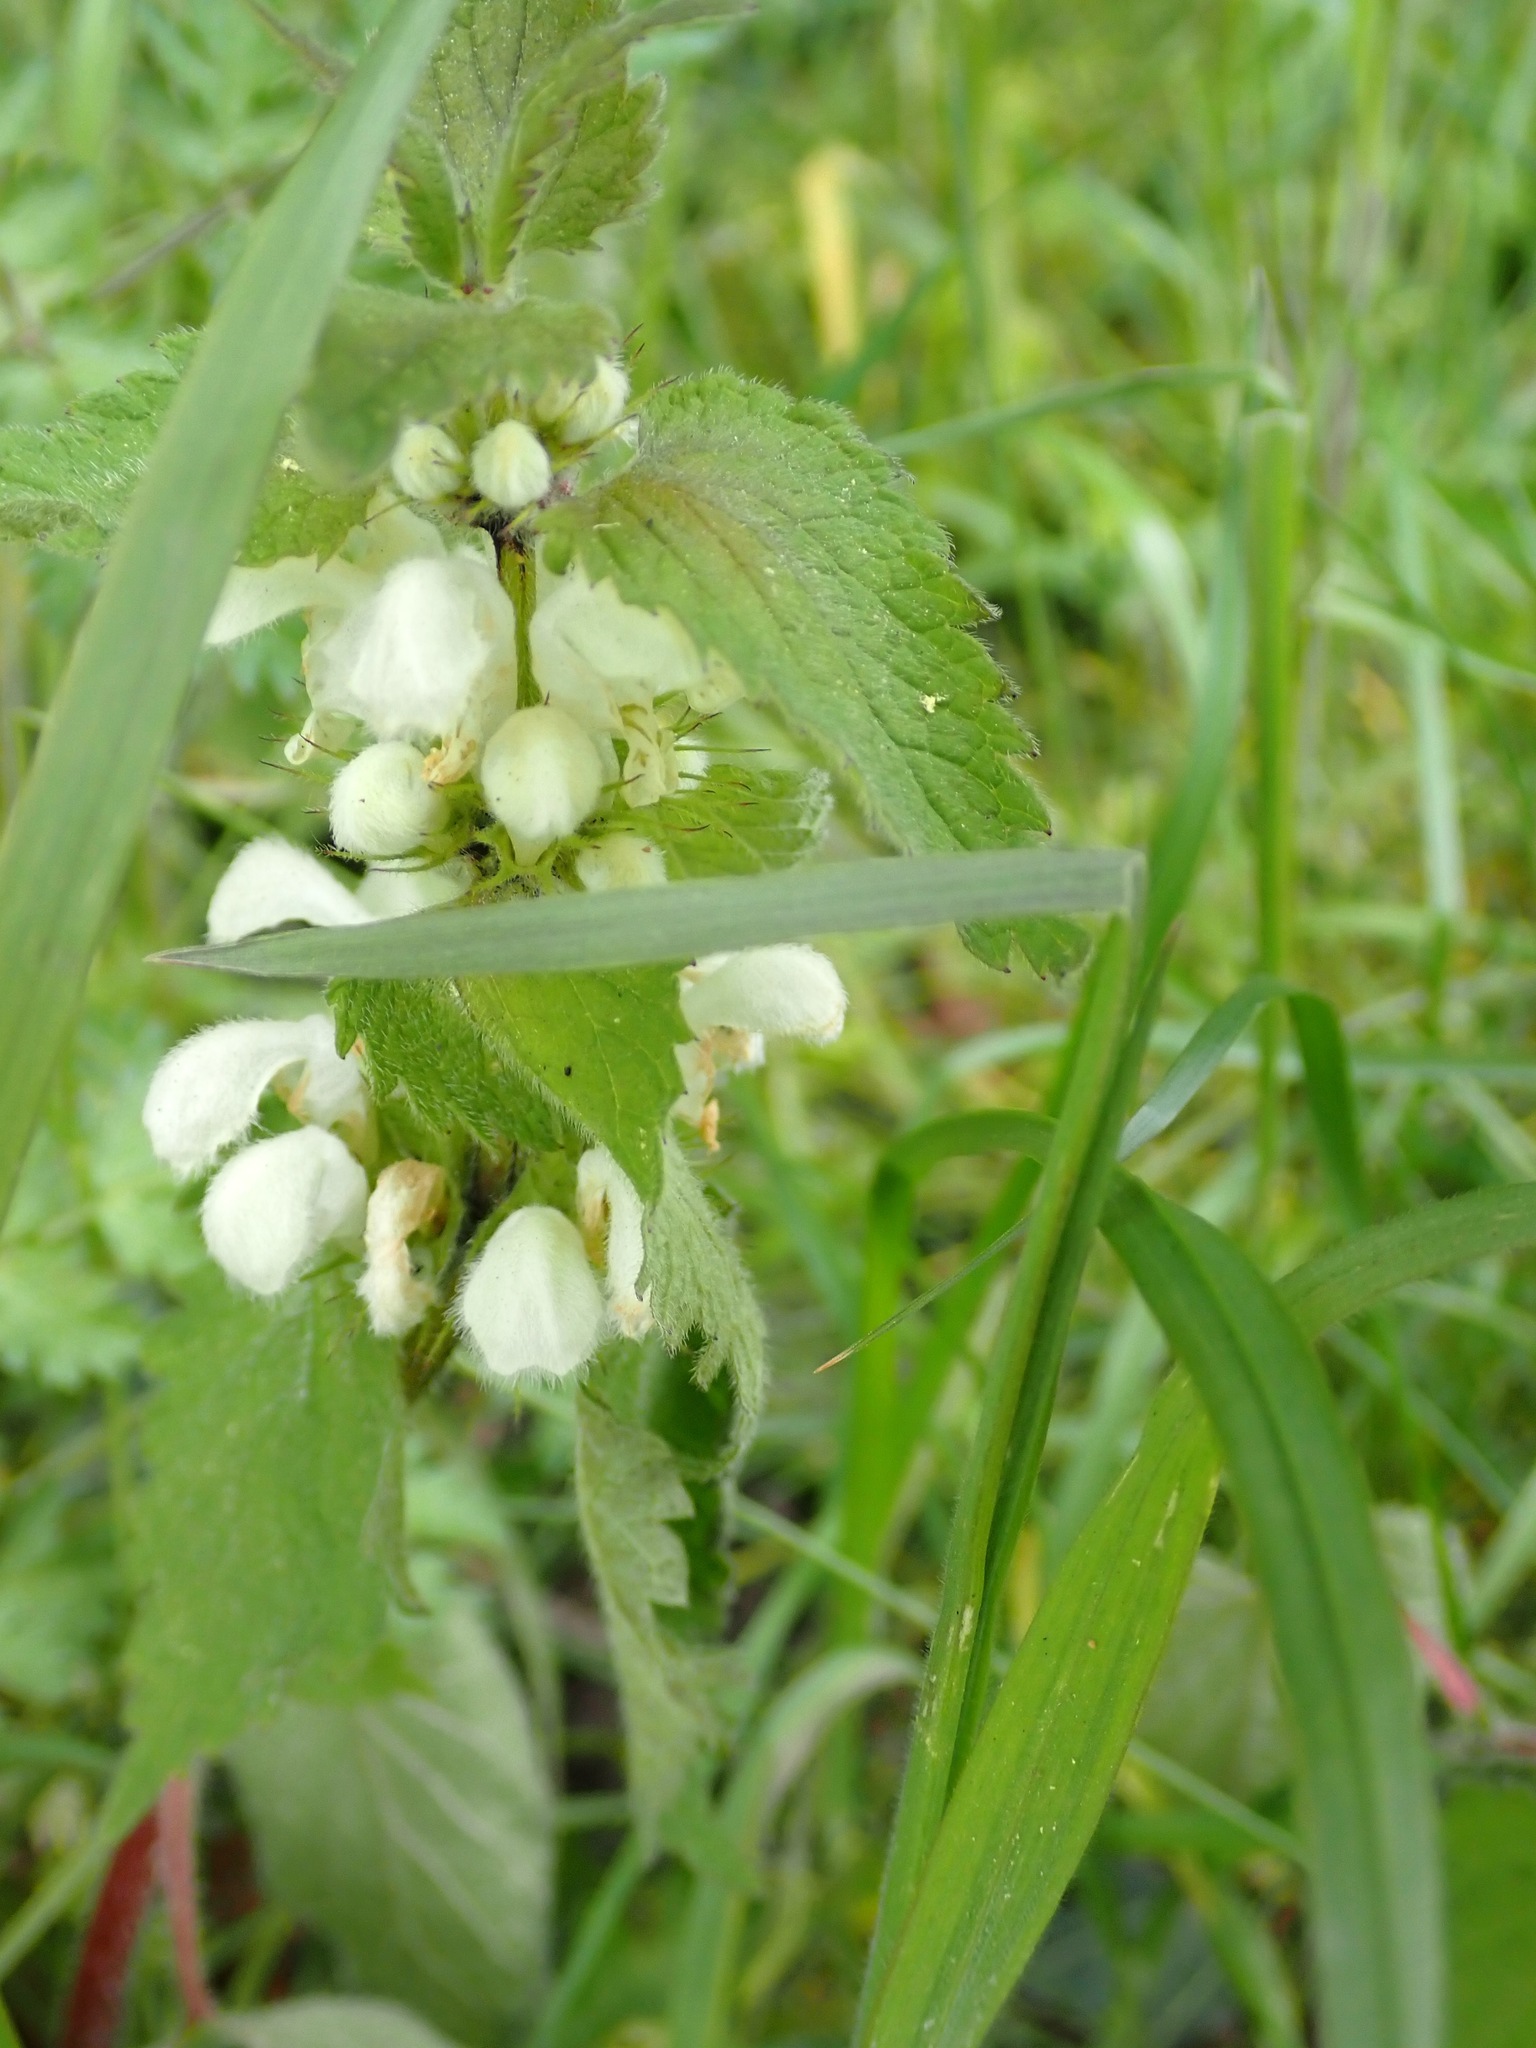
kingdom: Plantae
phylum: Tracheophyta
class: Magnoliopsida
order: Lamiales
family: Lamiaceae
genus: Lamium
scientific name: Lamium album
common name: White dead-nettle
